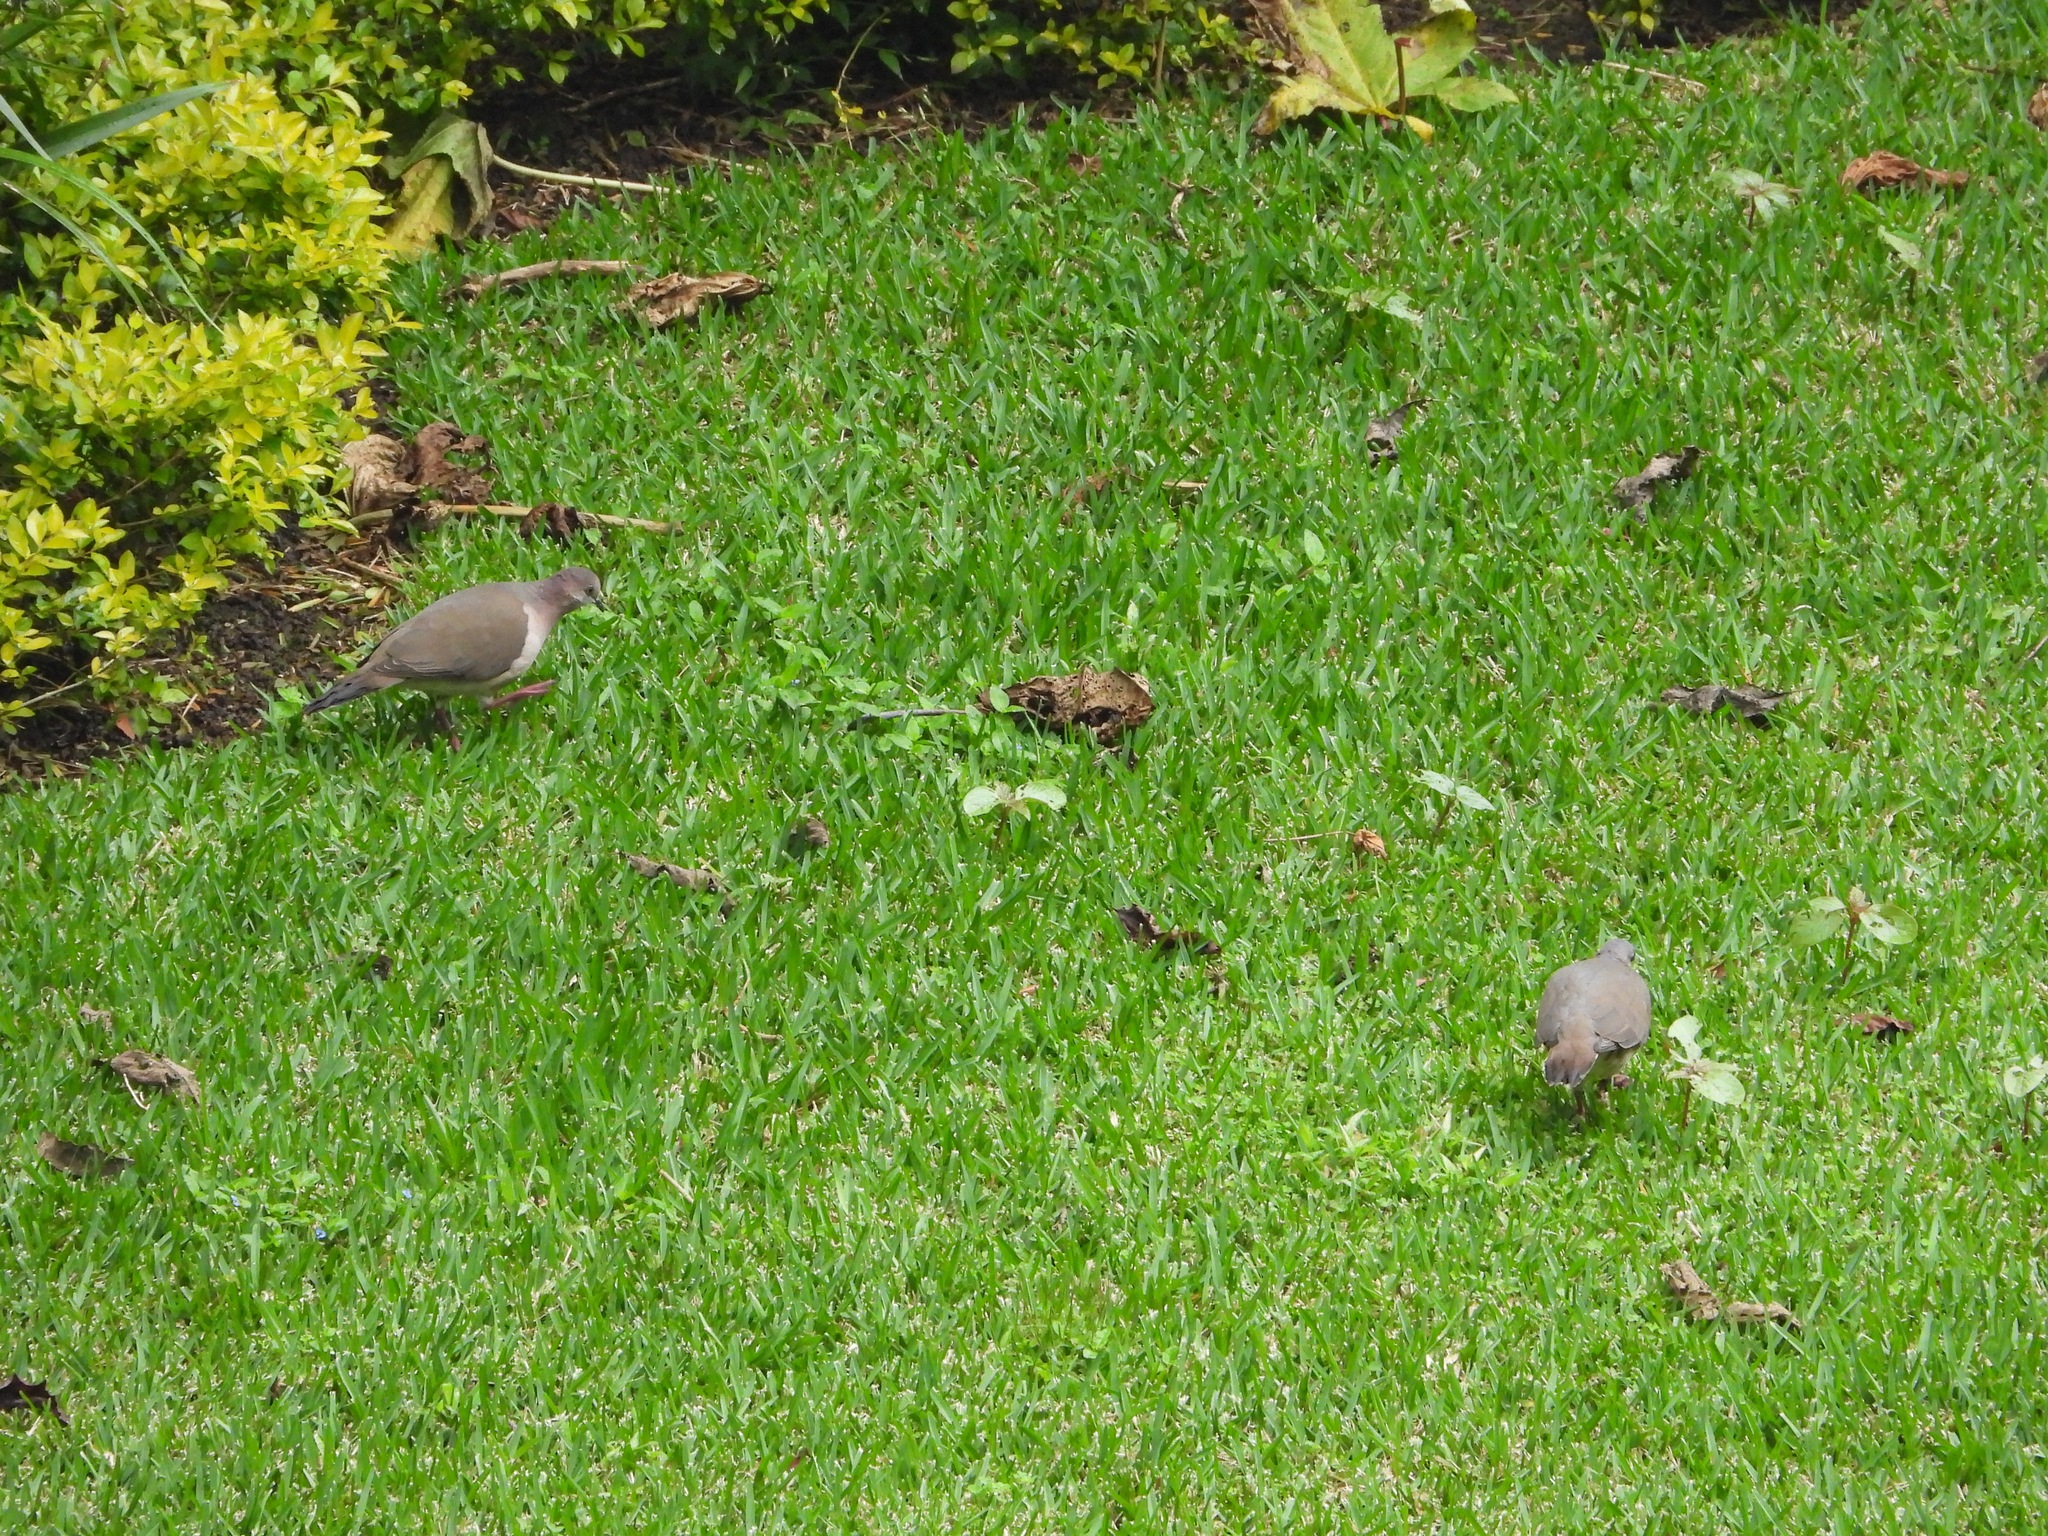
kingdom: Animalia
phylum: Chordata
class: Aves
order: Columbiformes
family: Columbidae
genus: Leptotila
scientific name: Leptotila verreauxi
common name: White-tipped dove
